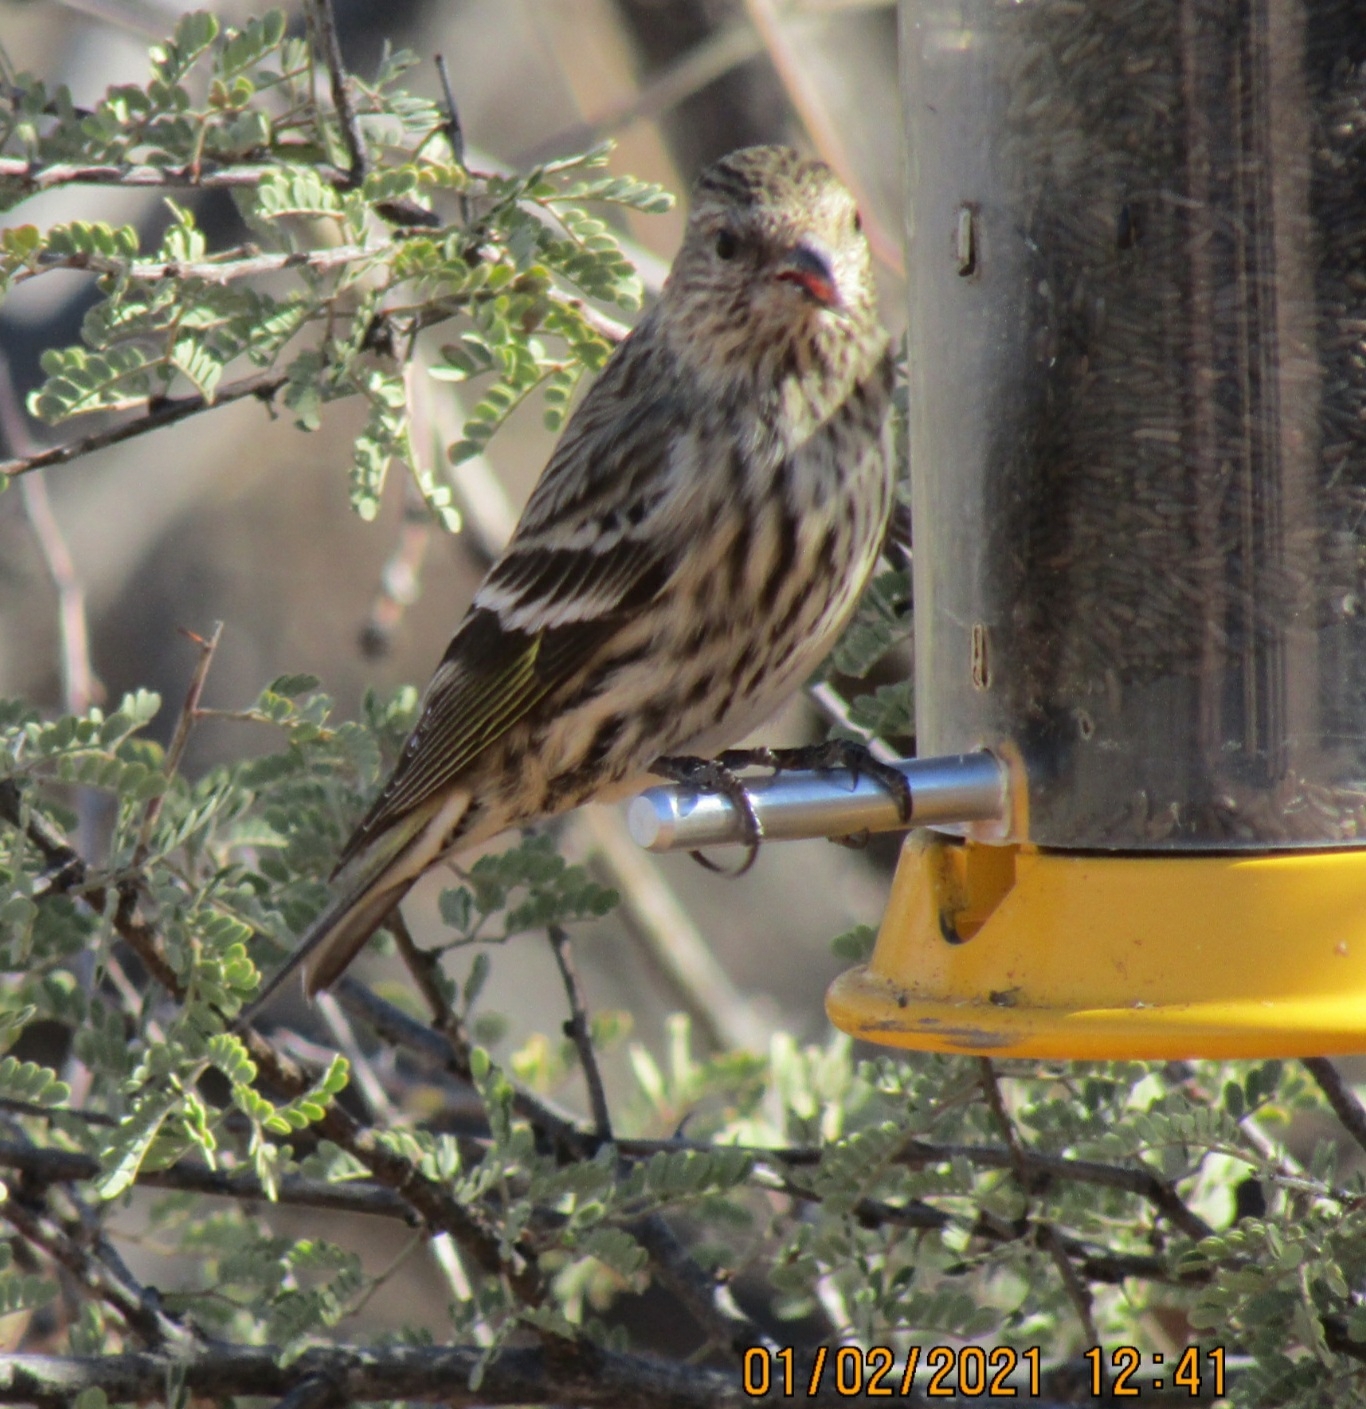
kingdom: Animalia
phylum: Chordata
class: Aves
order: Passeriformes
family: Fringillidae
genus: Spinus
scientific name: Spinus pinus
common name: Pine siskin
